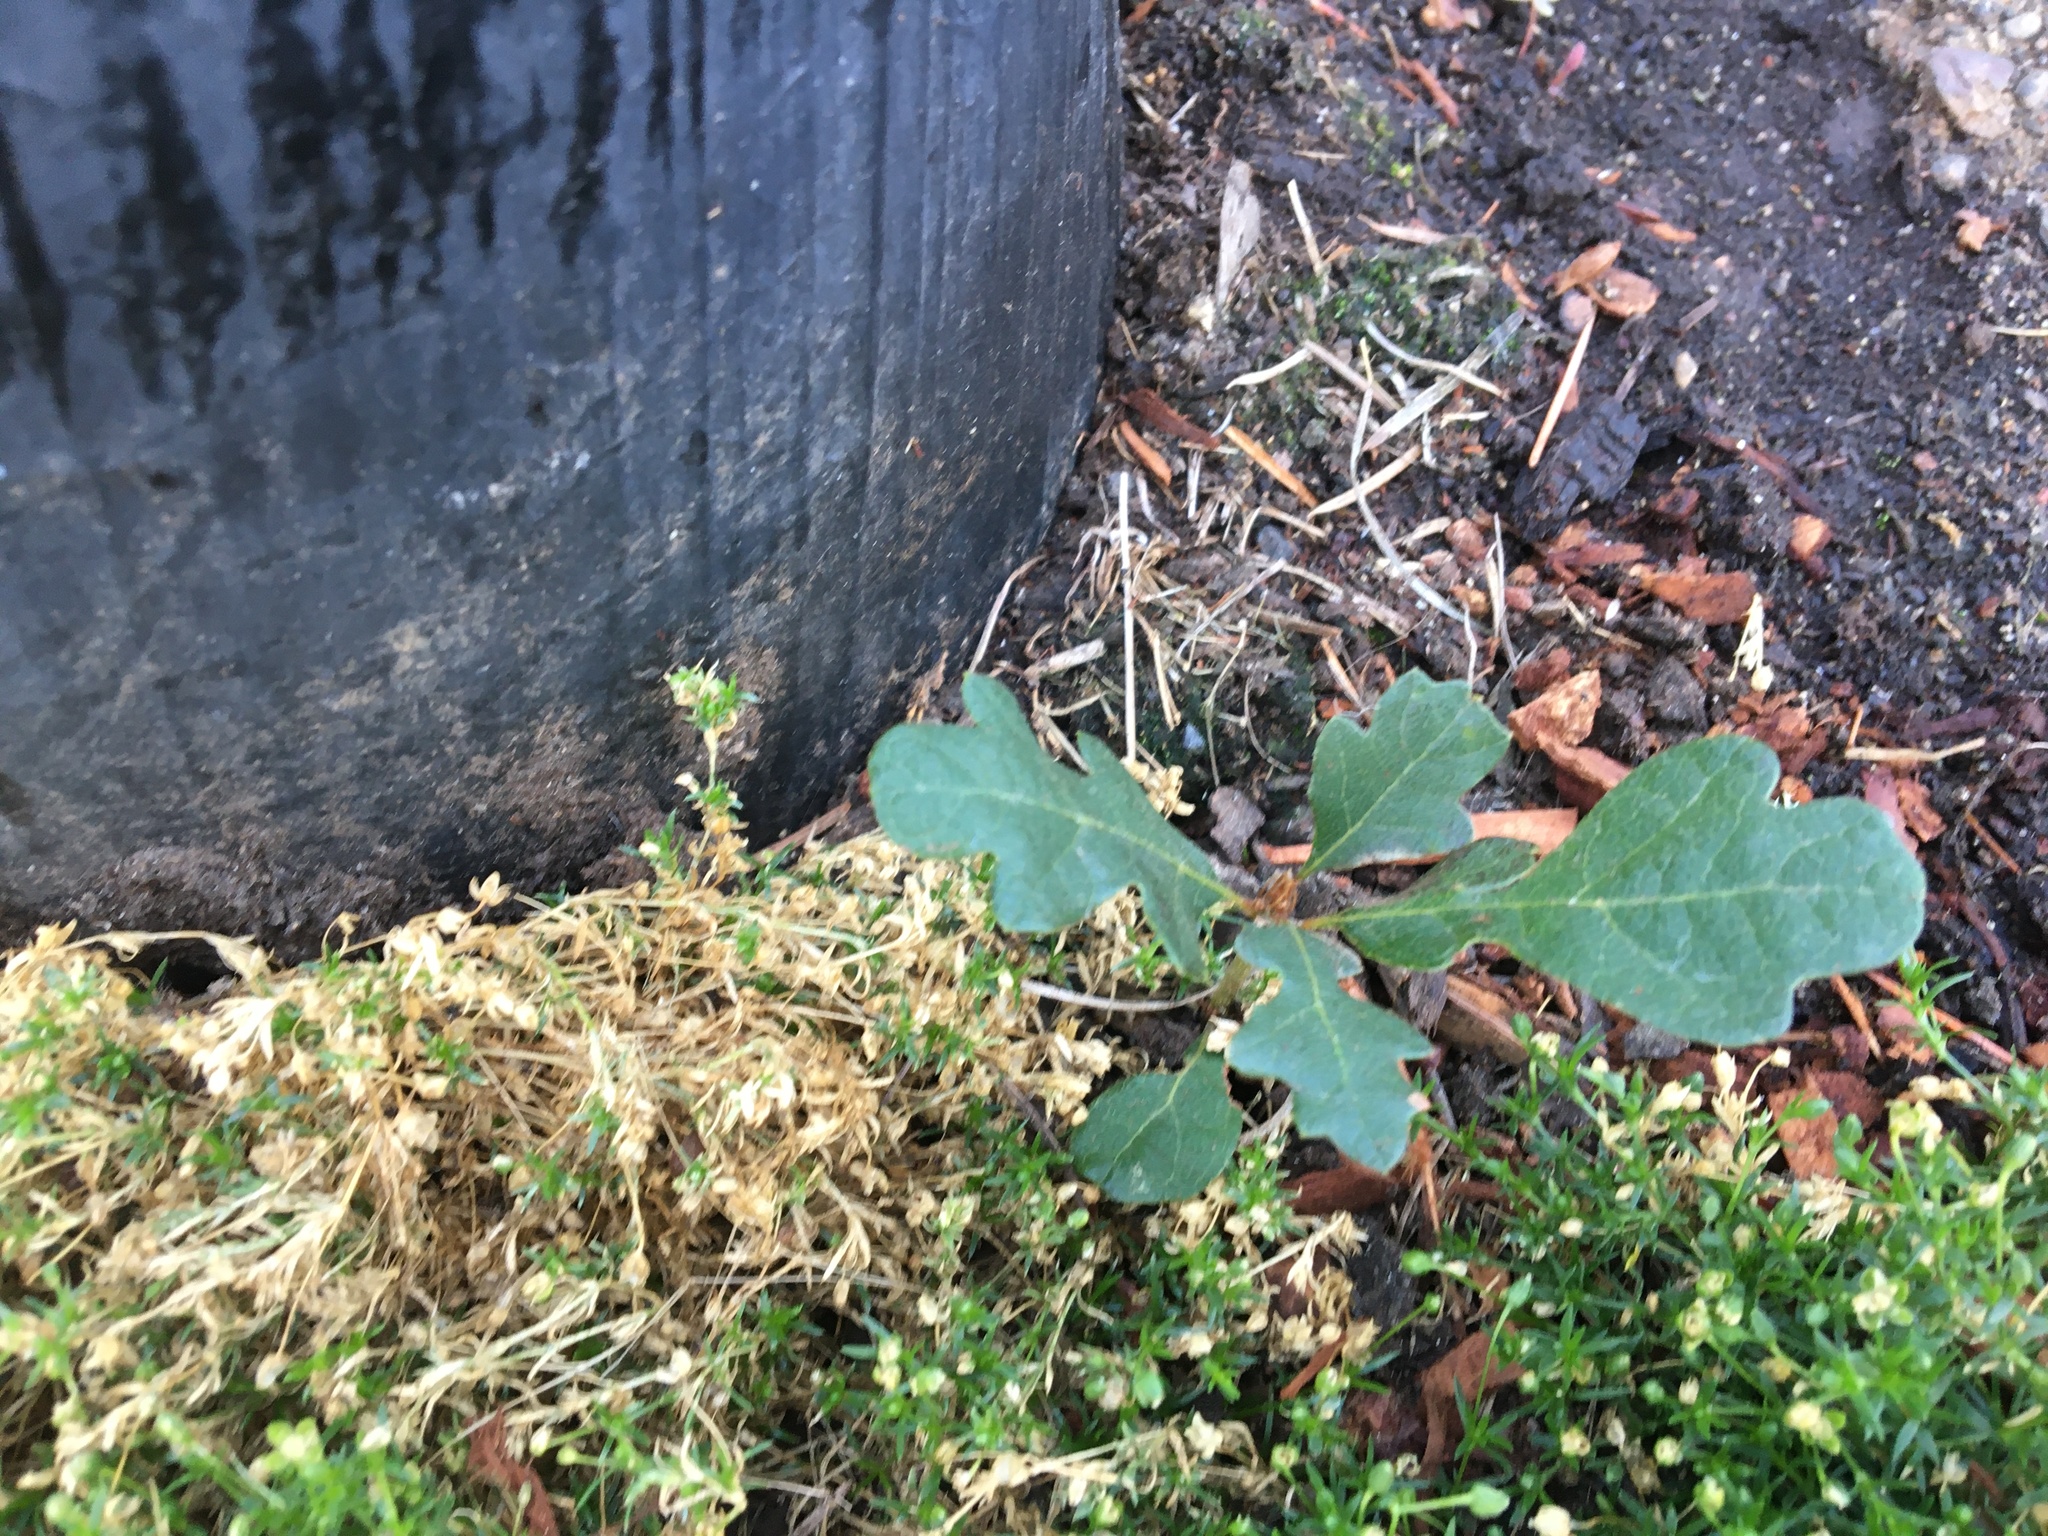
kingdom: Plantae
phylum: Tracheophyta
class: Magnoliopsida
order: Fagales
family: Fagaceae
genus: Quercus
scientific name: Quercus garryana
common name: Garry oak
